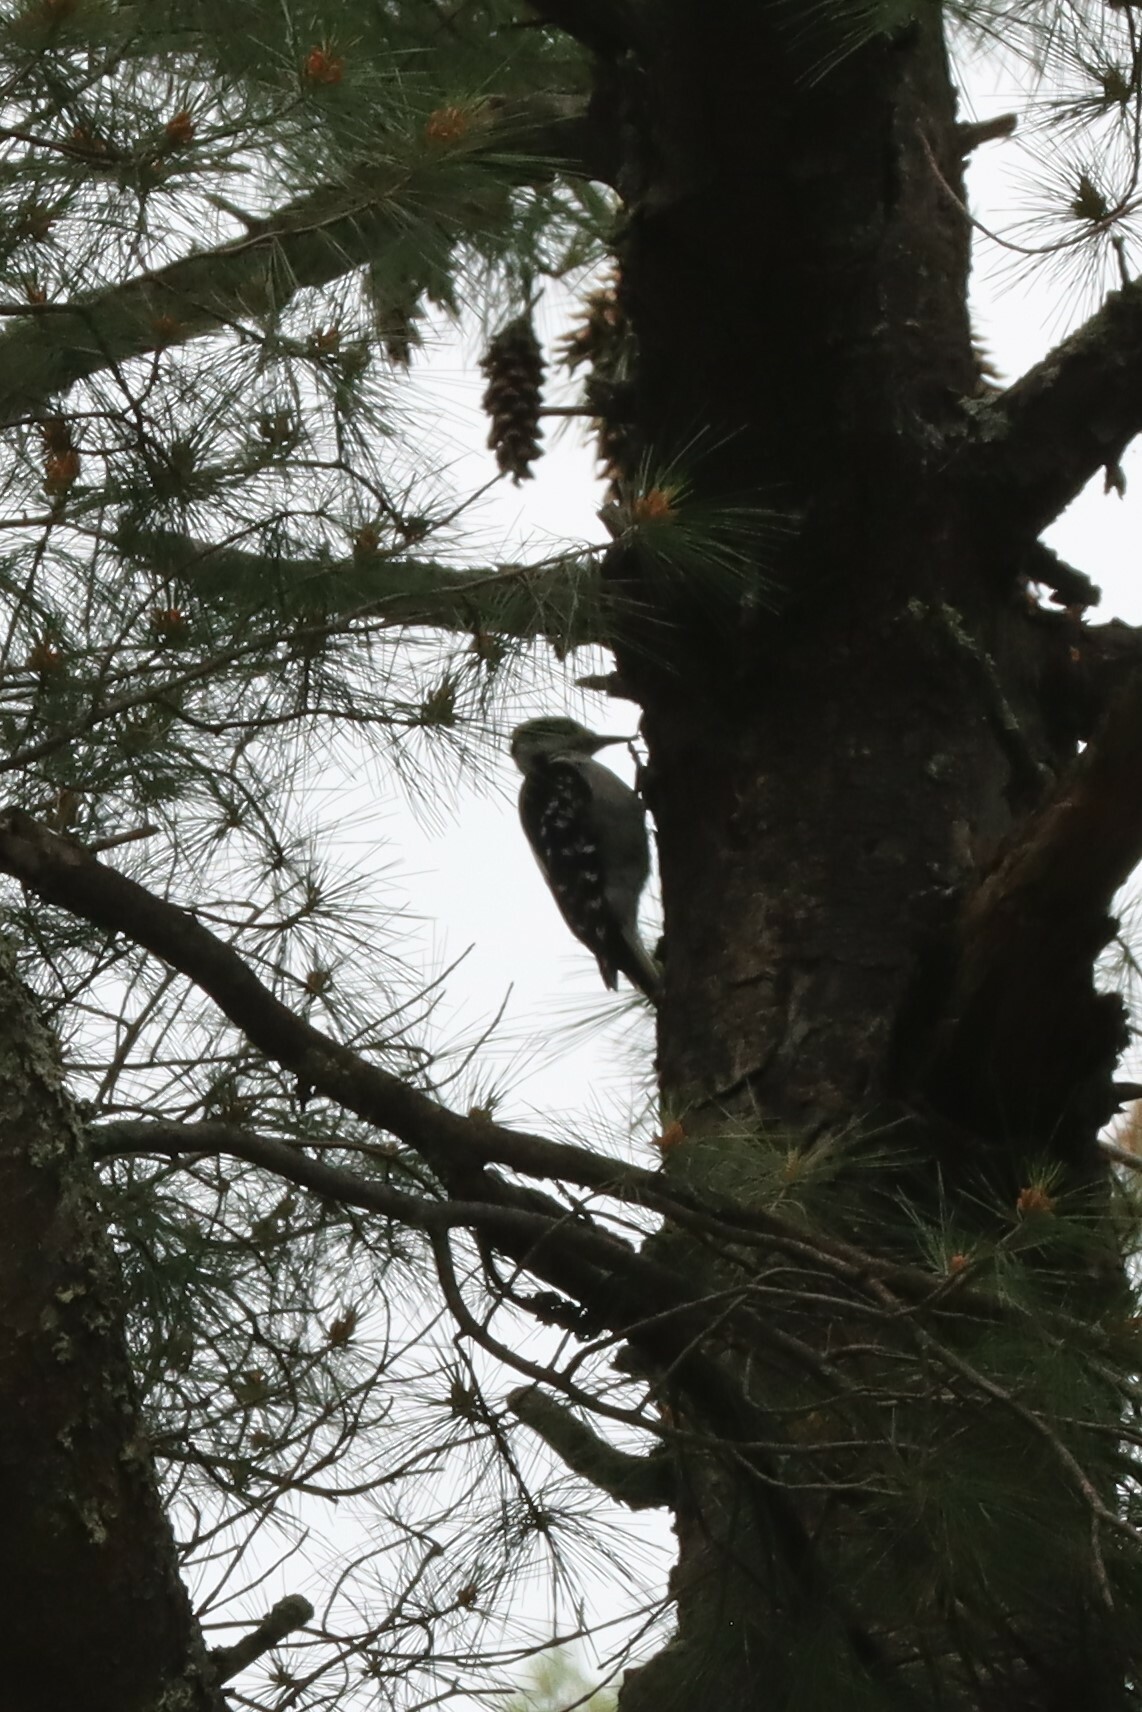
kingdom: Animalia
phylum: Chordata
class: Aves
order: Piciformes
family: Picidae
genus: Leuconotopicus
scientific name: Leuconotopicus villosus
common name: Hairy woodpecker
